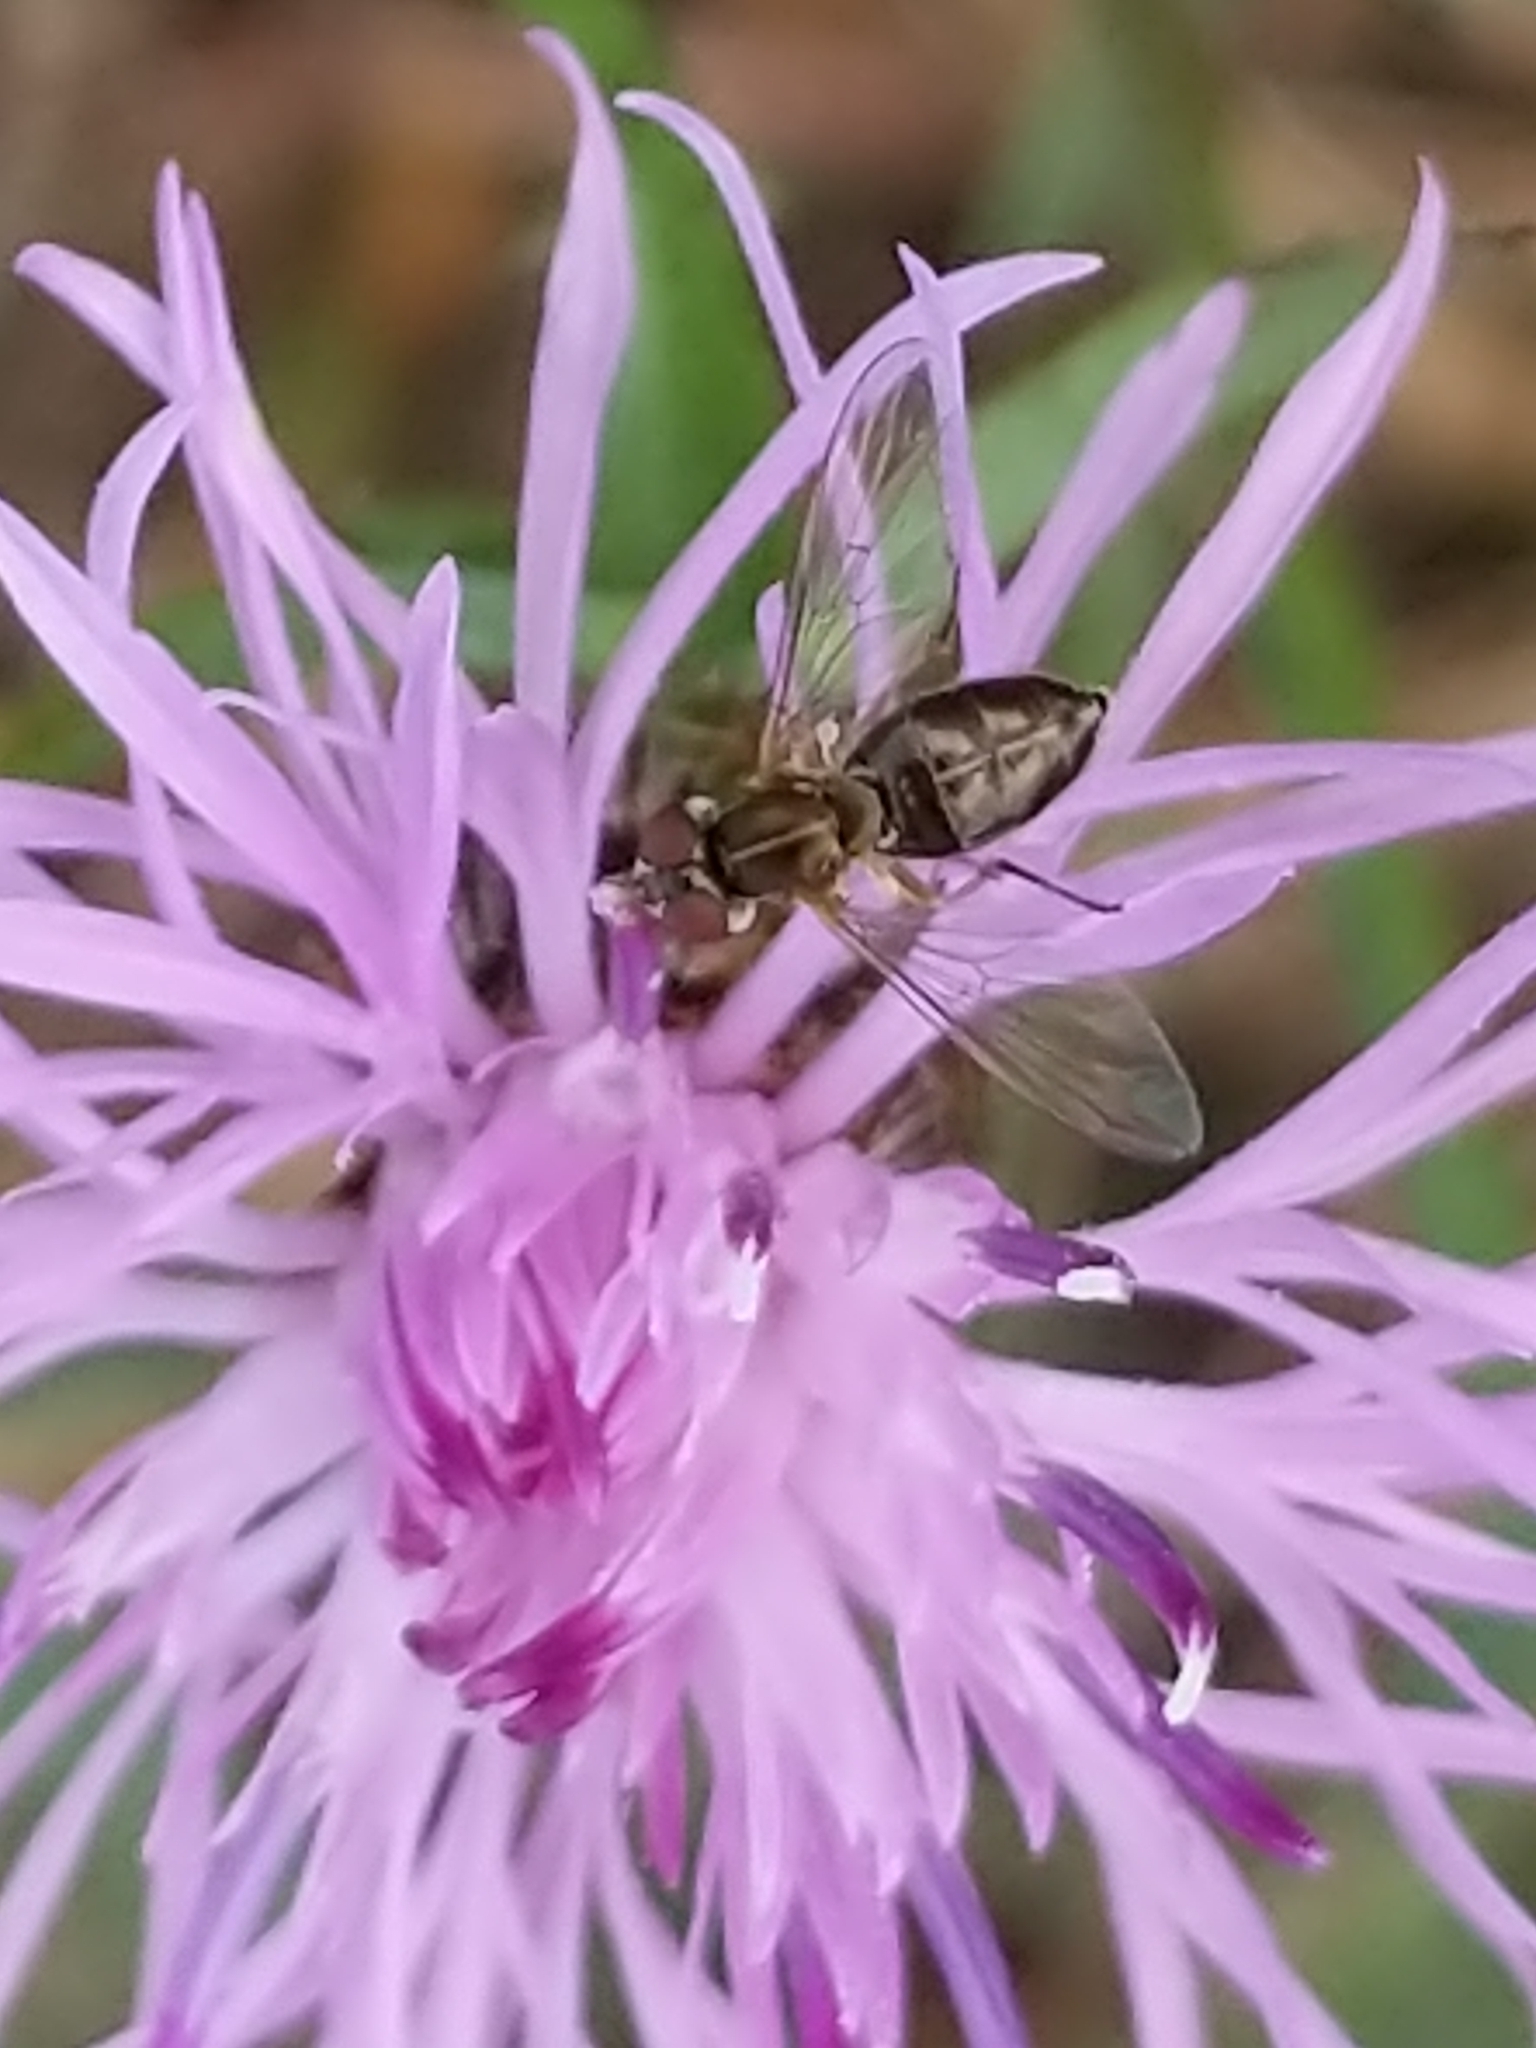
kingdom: Animalia
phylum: Arthropoda
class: Insecta
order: Diptera
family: Syrphidae
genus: Toxomerus
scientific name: Toxomerus marginatus
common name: Syrphid fly
